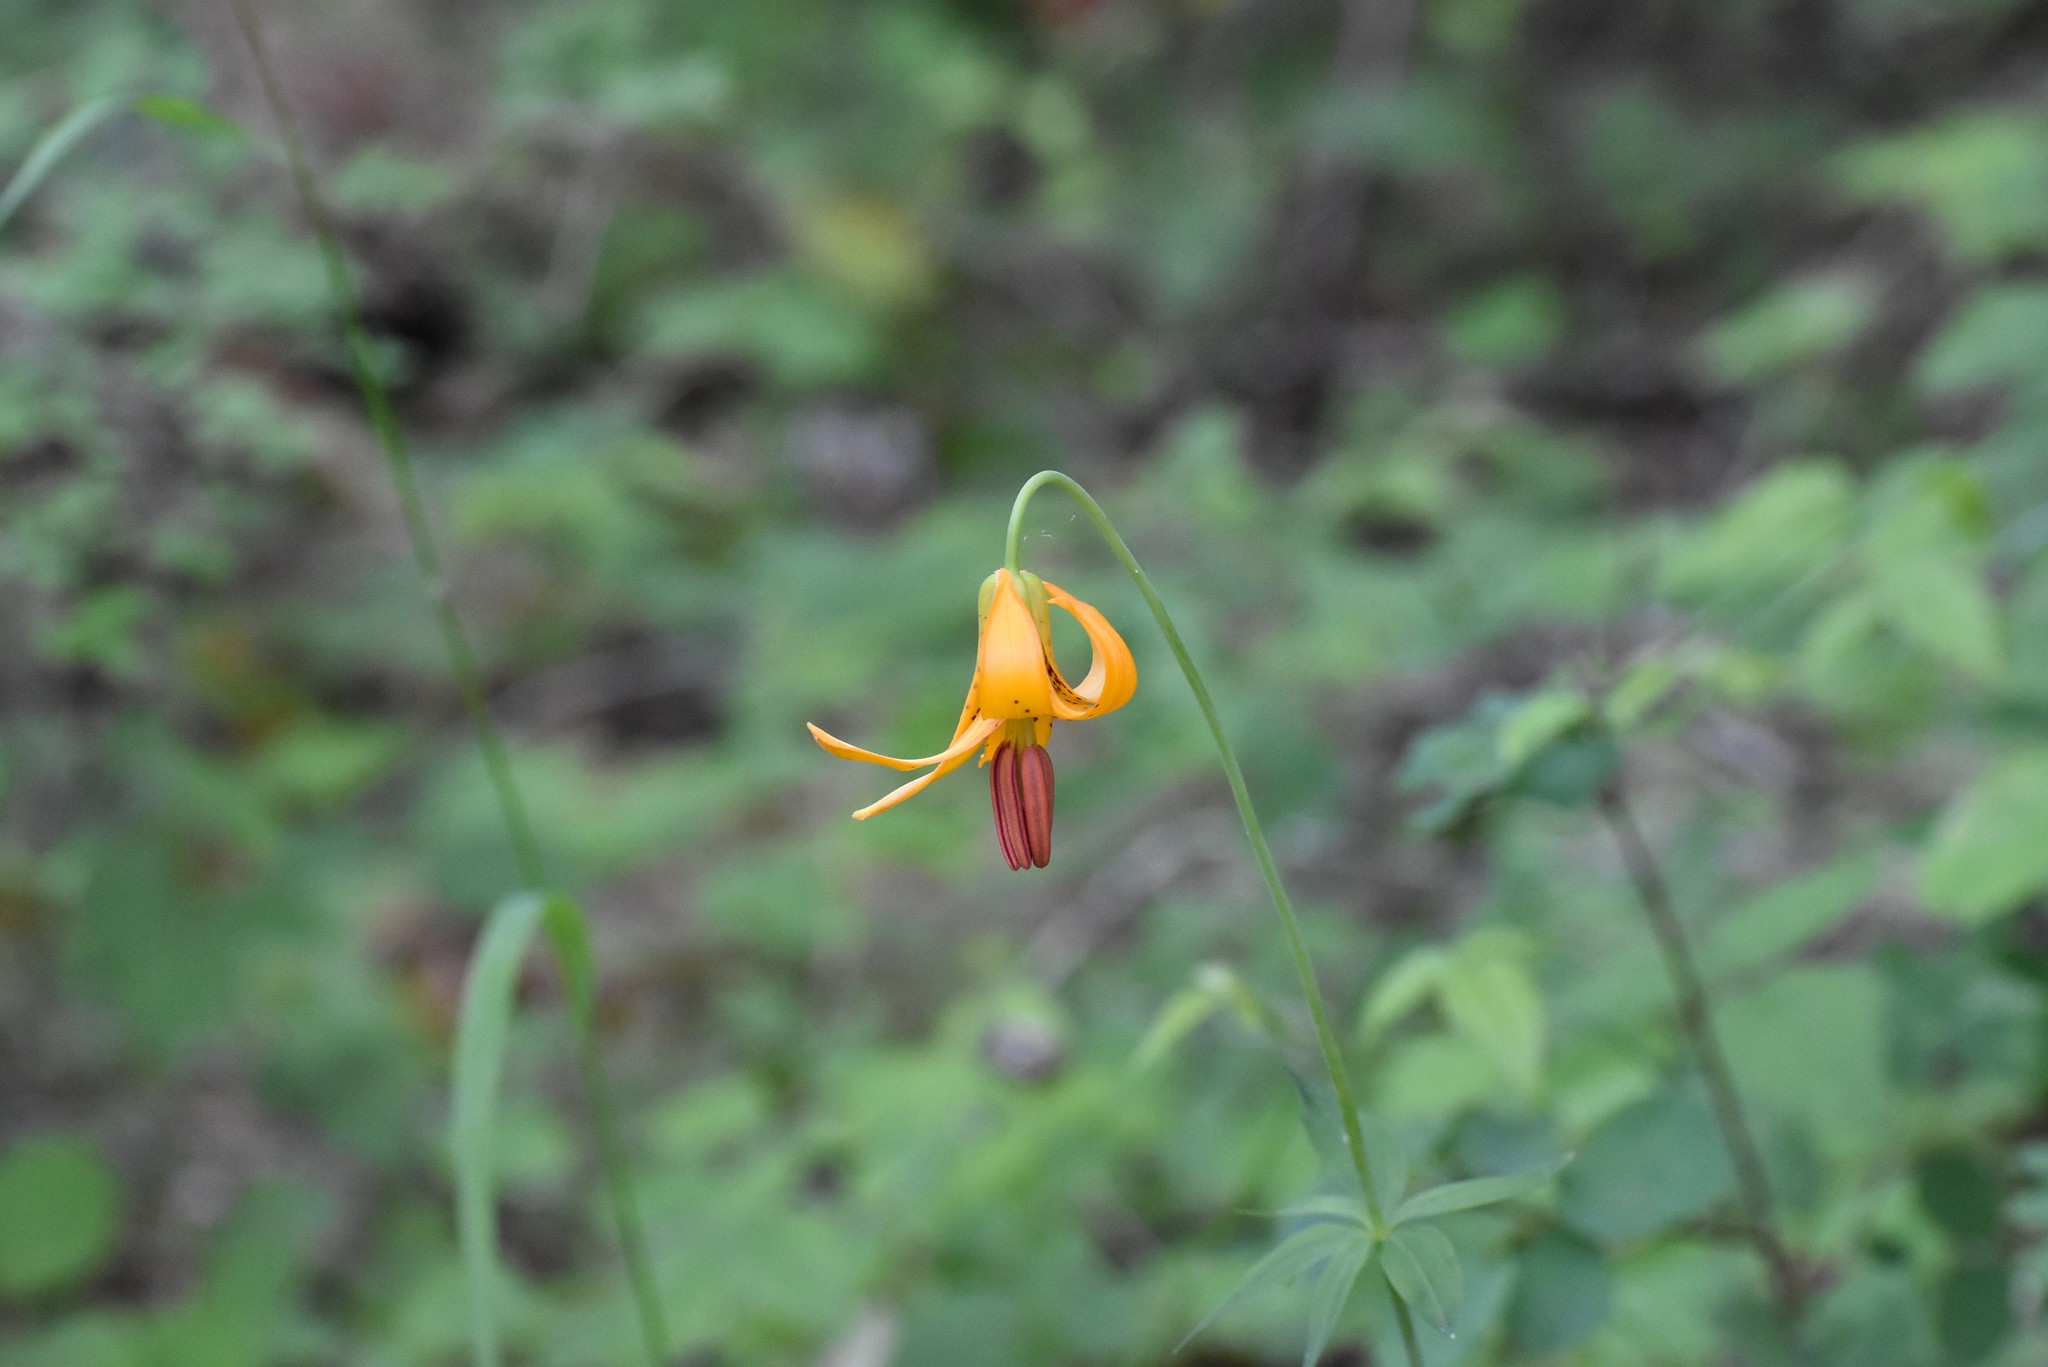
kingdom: Plantae
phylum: Tracheophyta
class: Liliopsida
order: Liliales
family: Liliaceae
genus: Lilium
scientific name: Lilium columbianum
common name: Columbia lily
